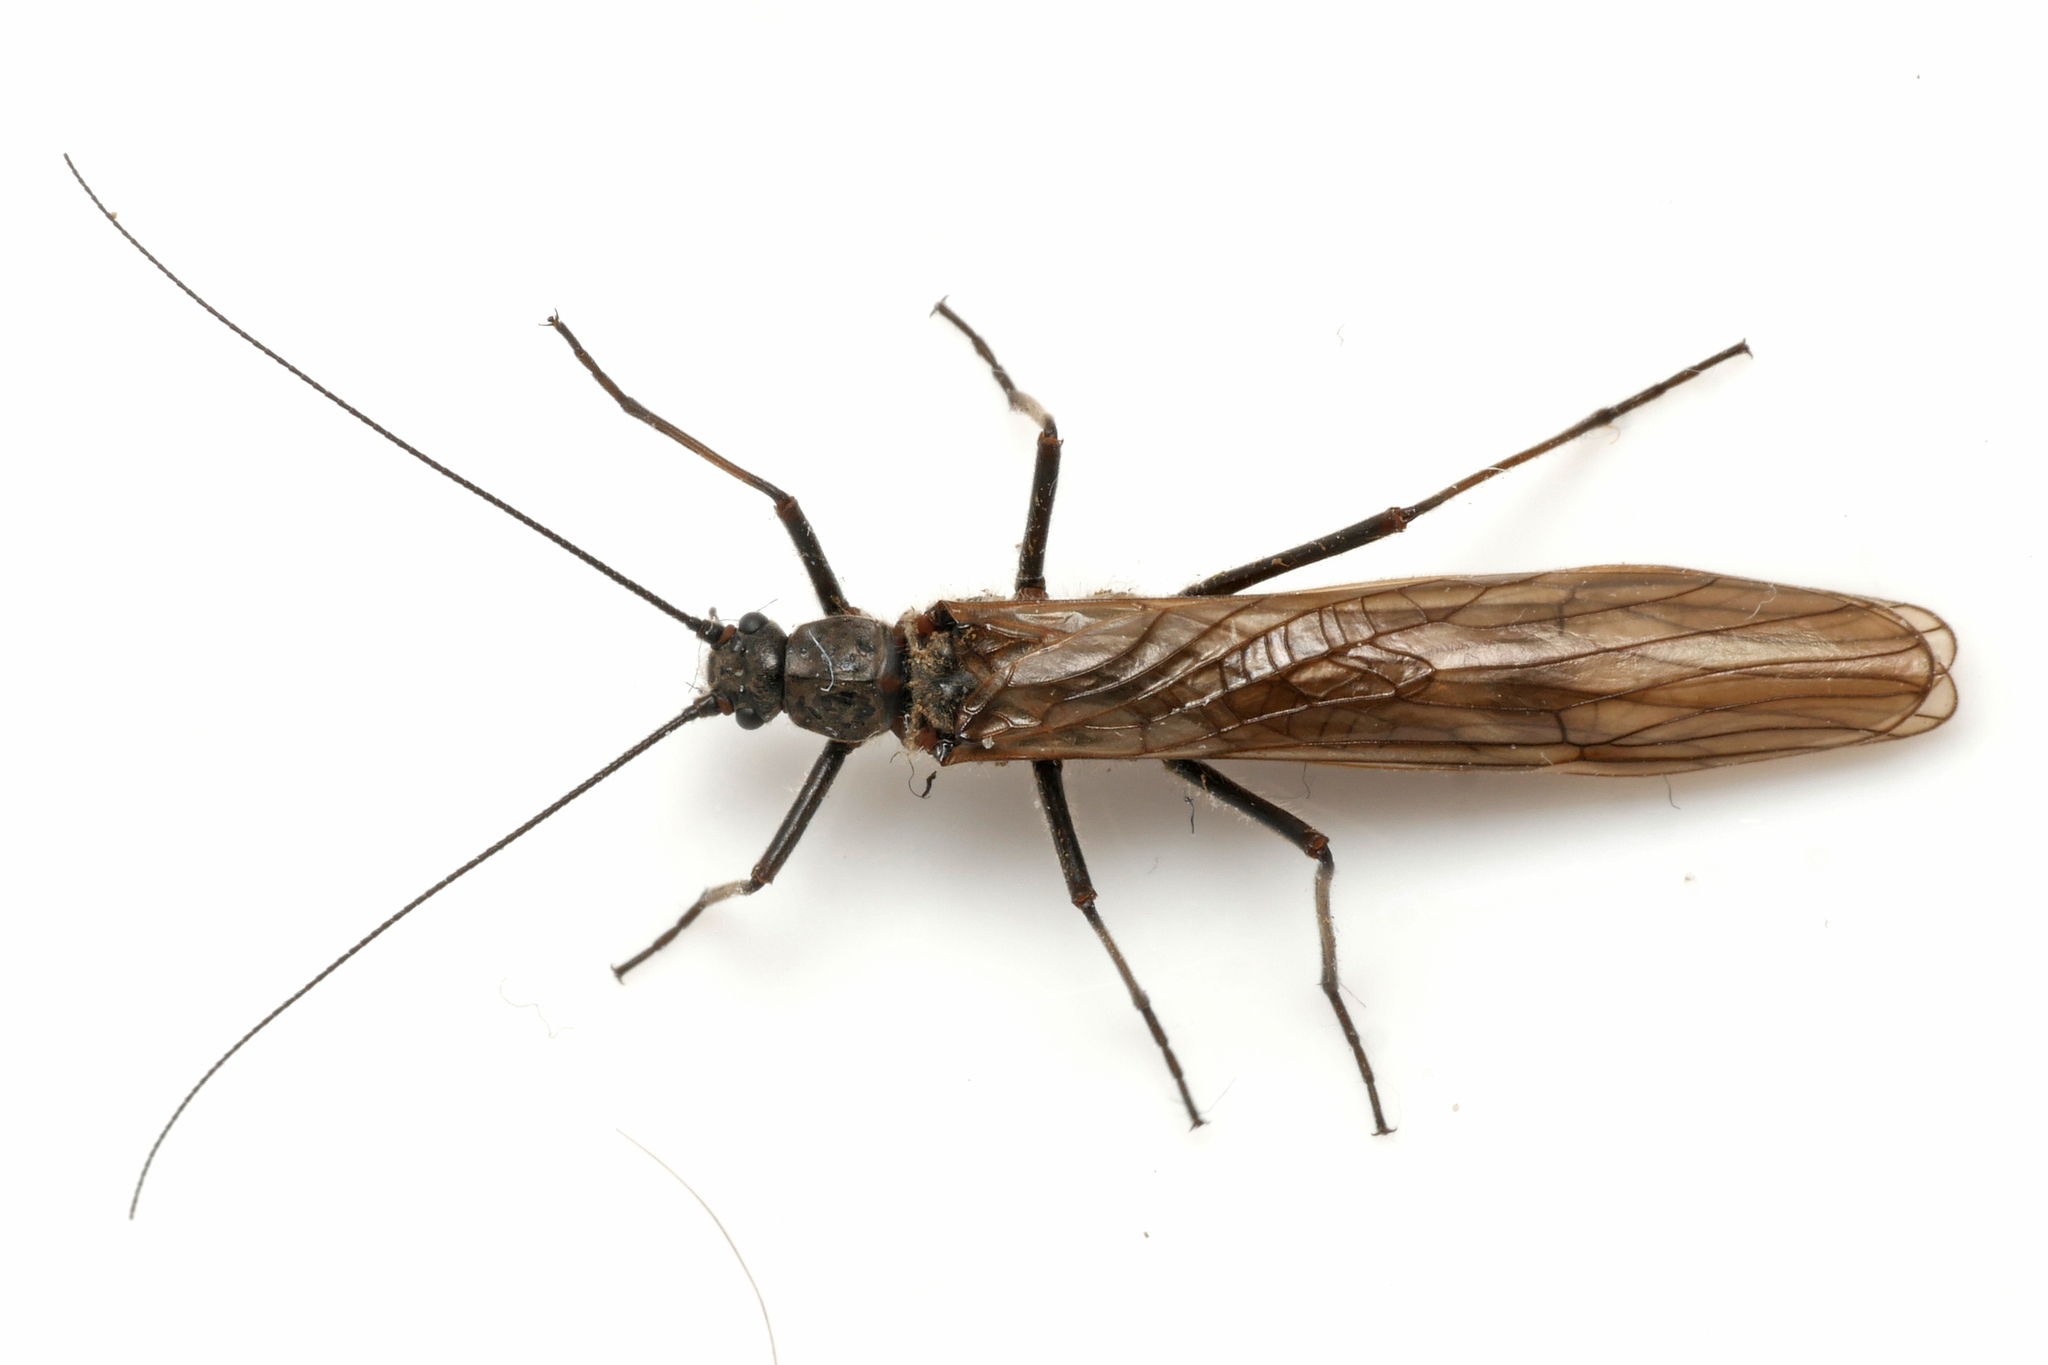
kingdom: Animalia
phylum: Arthropoda
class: Insecta
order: Plecoptera
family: Taeniopterygidae
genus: Taeniopteryx
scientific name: Taeniopteryx nebulosa
